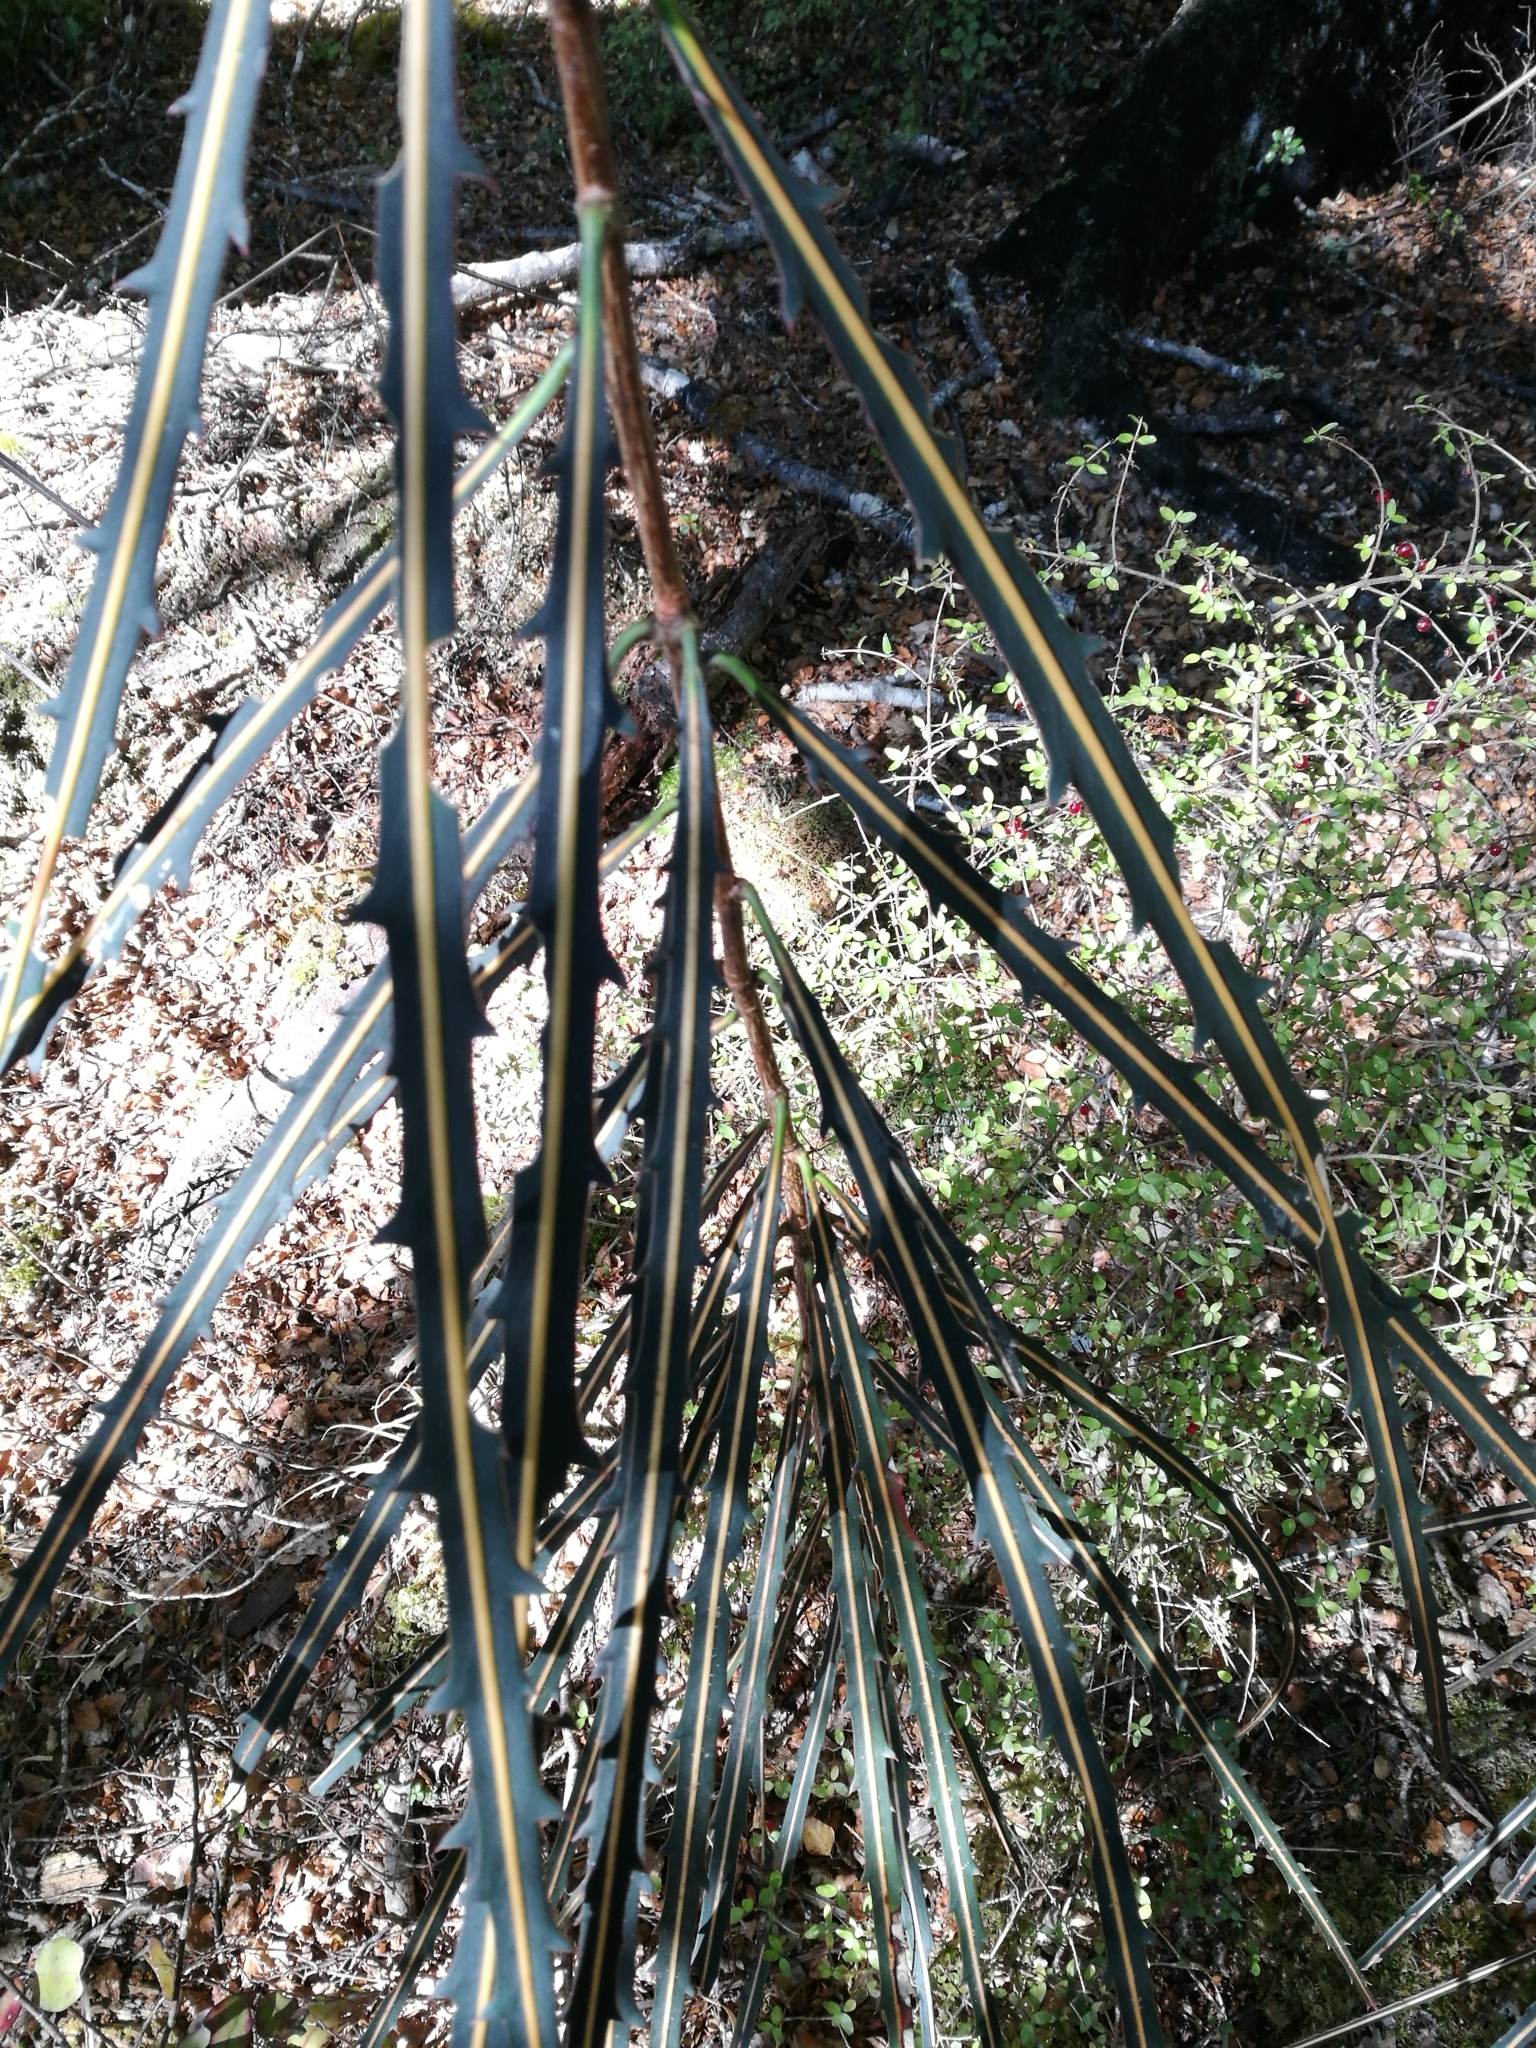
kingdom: Plantae
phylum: Tracheophyta
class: Magnoliopsida
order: Apiales
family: Araliaceae
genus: Pseudopanax
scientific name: Pseudopanax crassifolius
